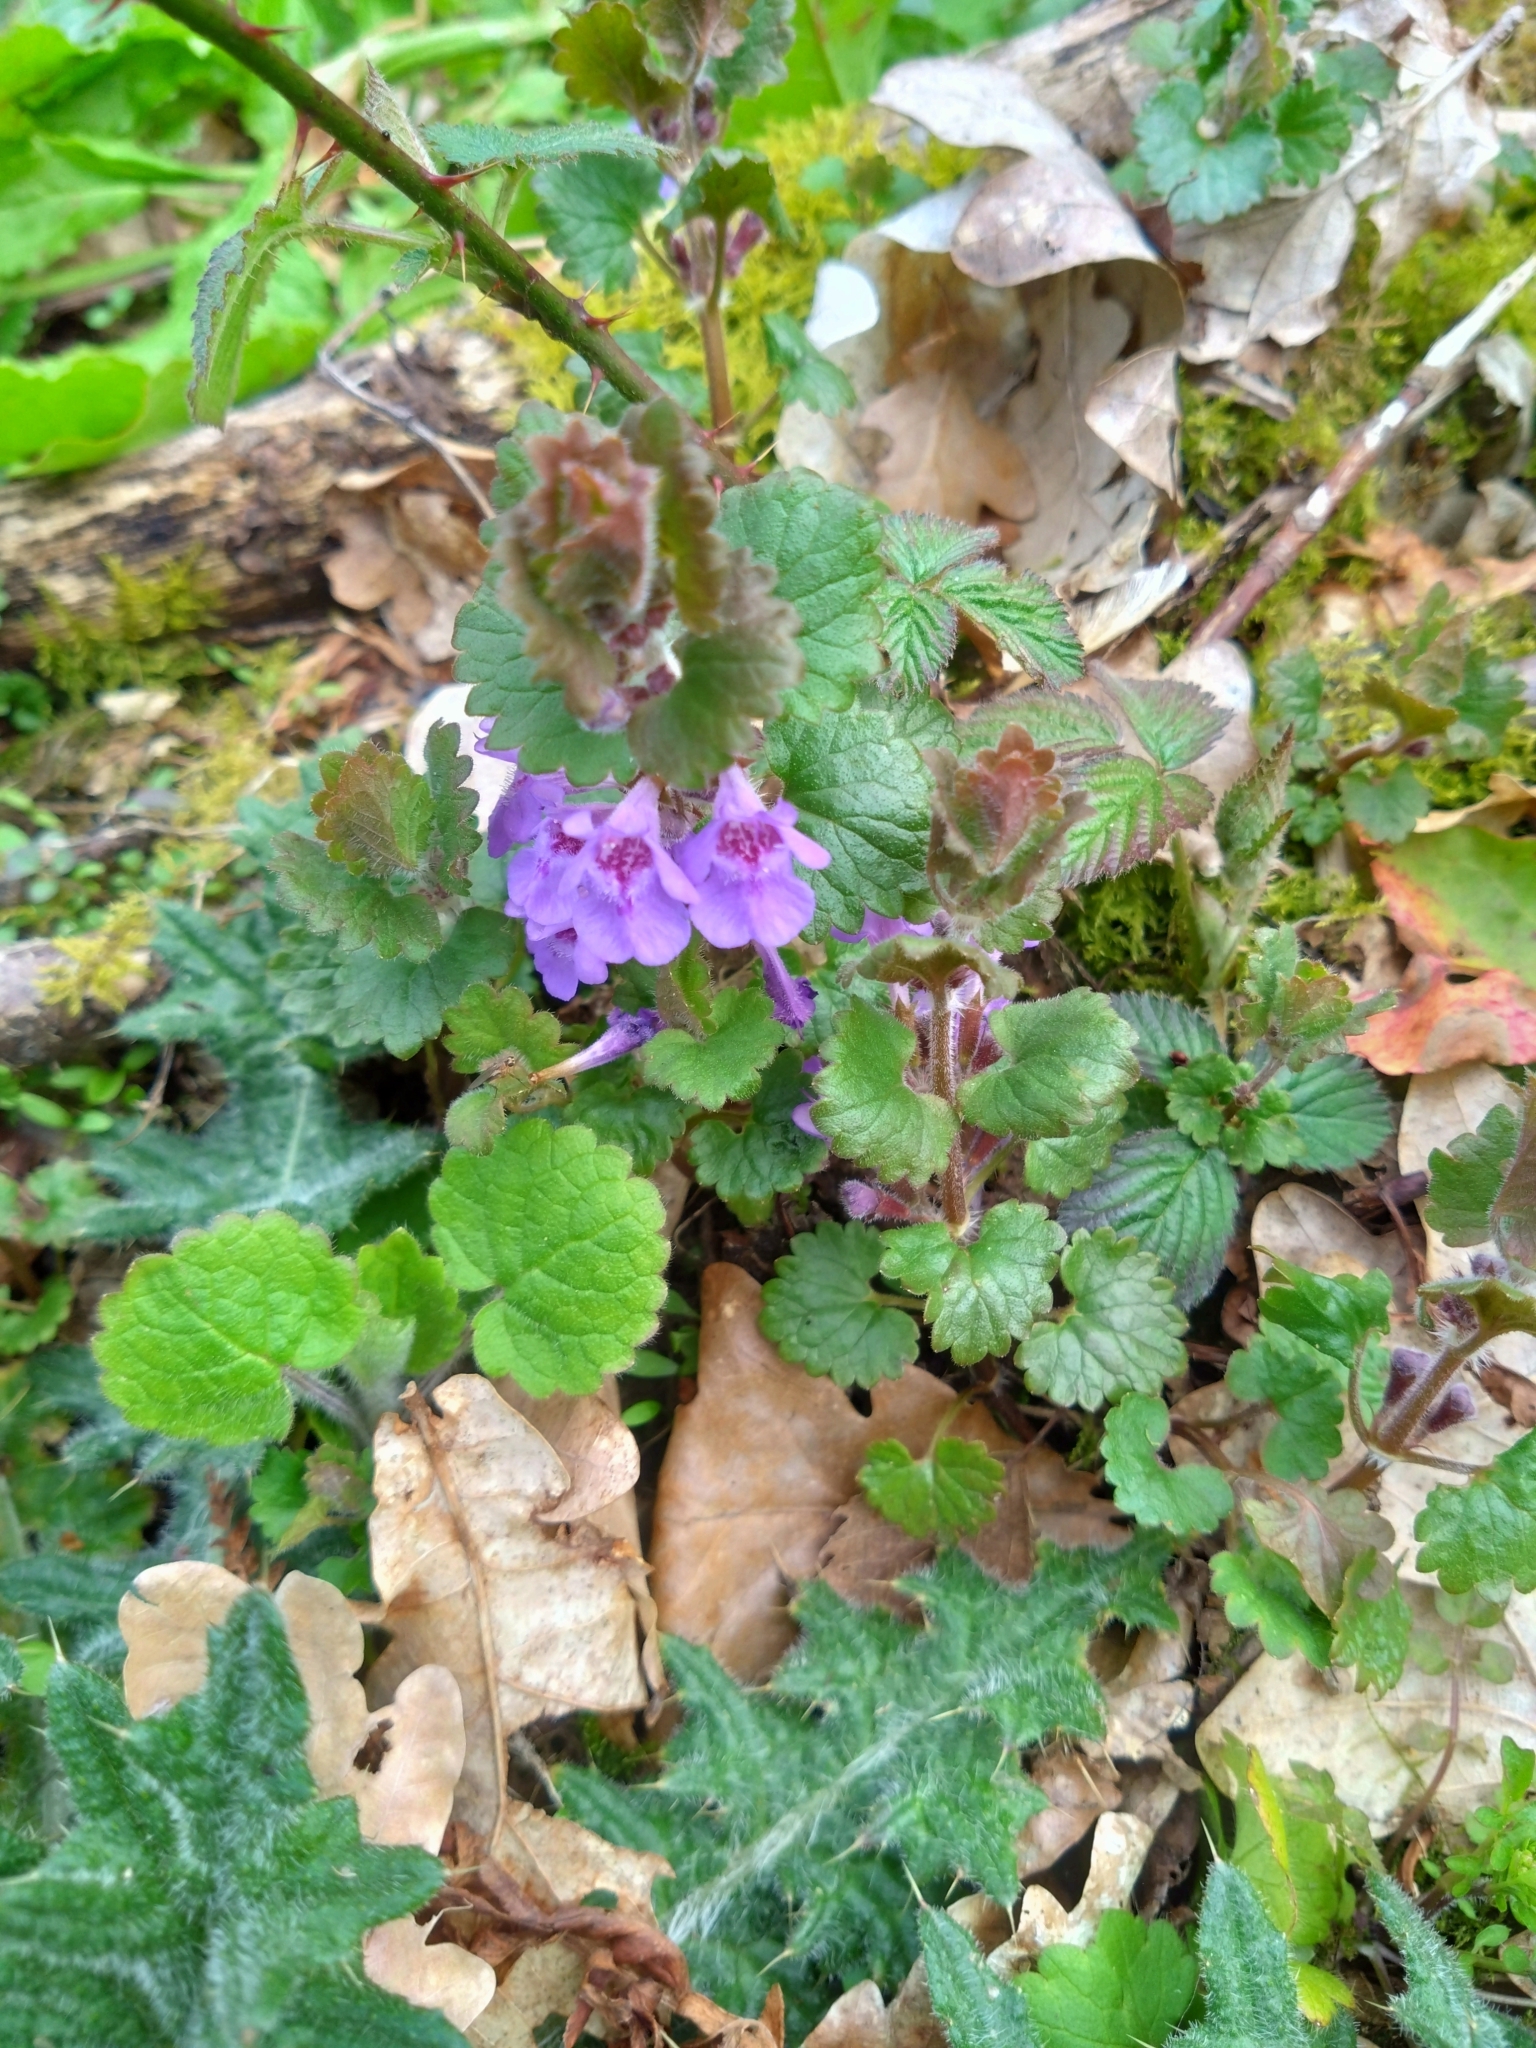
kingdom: Plantae
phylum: Tracheophyta
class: Magnoliopsida
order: Lamiales
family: Lamiaceae
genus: Glechoma
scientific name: Glechoma hederacea
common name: Ground ivy
